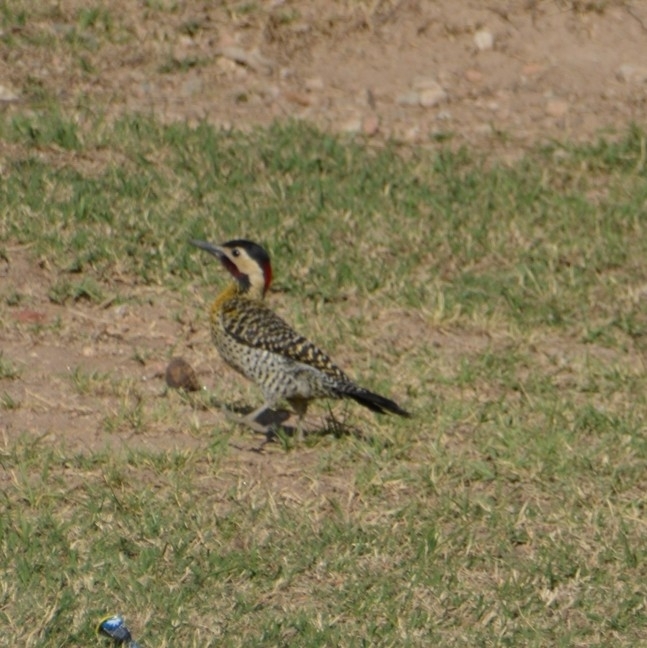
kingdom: Animalia
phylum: Chordata
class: Aves
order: Piciformes
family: Picidae
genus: Colaptes
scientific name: Colaptes melanochloros
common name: Green-barred woodpecker
